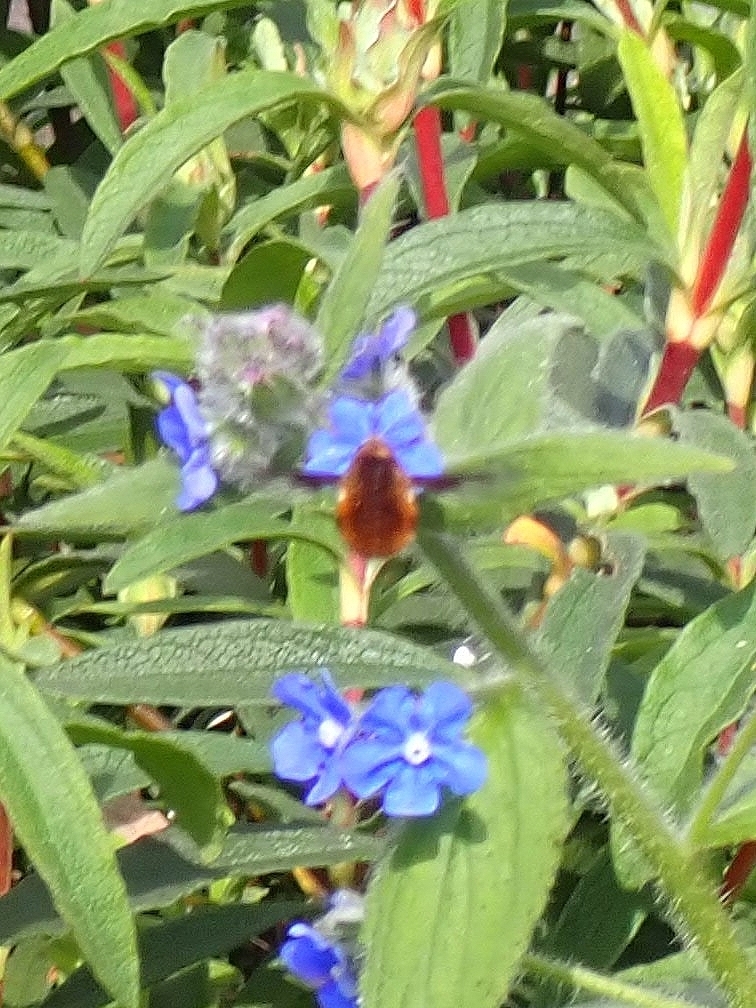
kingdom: Animalia
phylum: Arthropoda
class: Insecta
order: Diptera
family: Bombyliidae
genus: Bombylius
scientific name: Bombylius major
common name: Bee fly
